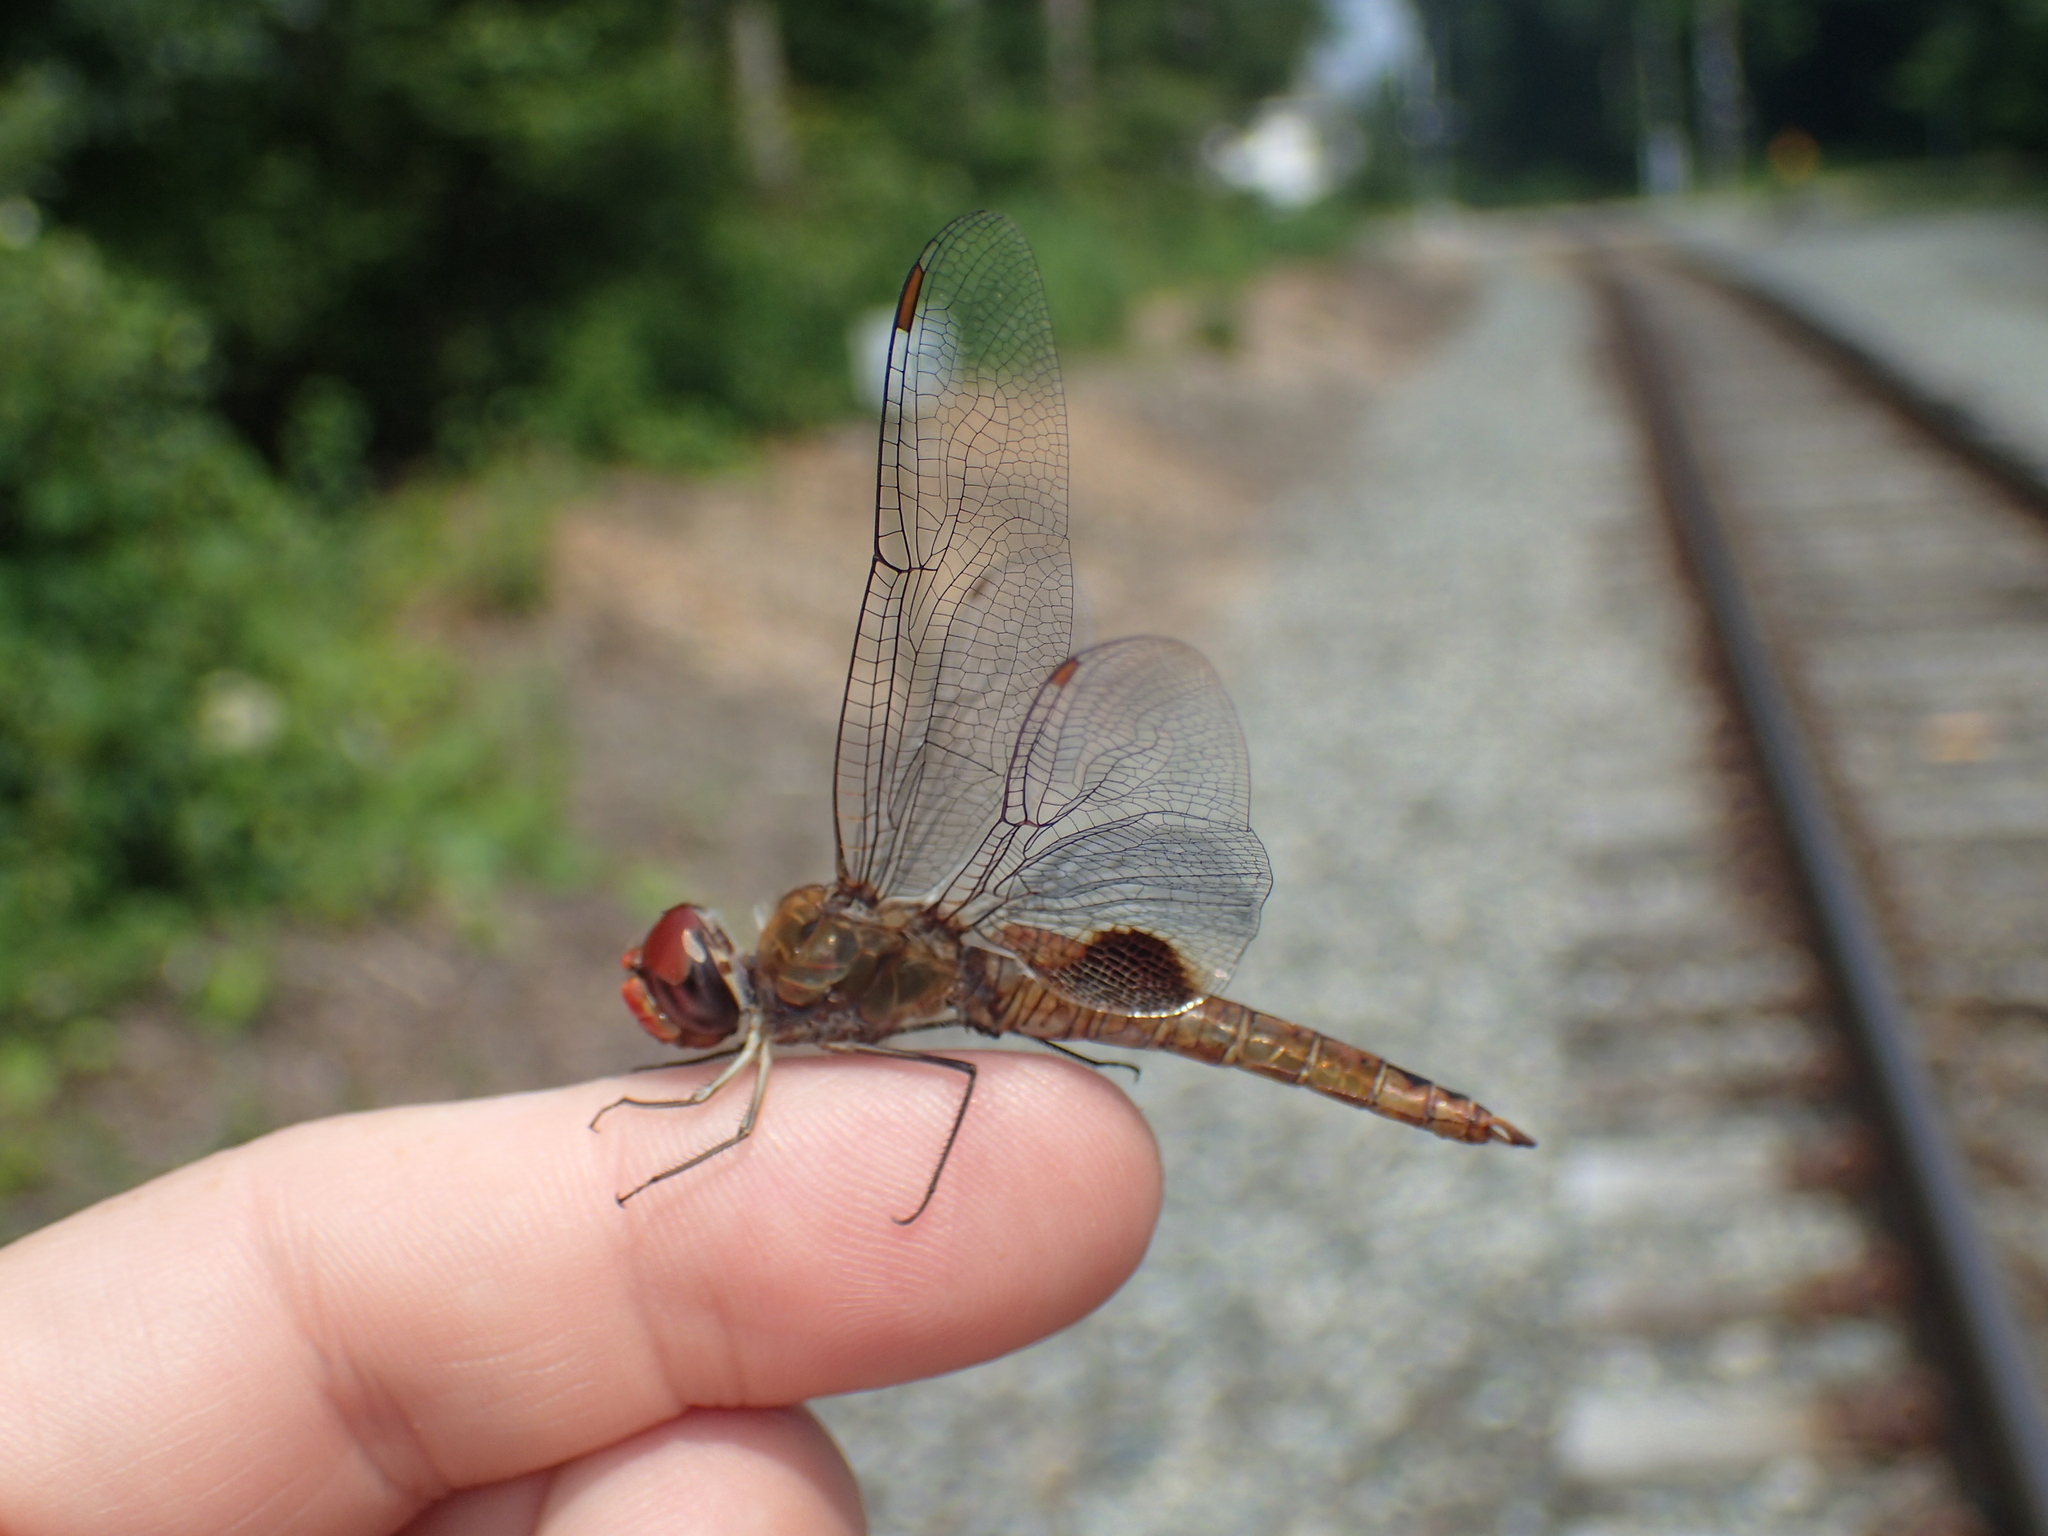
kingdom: Animalia
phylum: Arthropoda
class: Insecta
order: Odonata
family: Libellulidae
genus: Pantala
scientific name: Pantala hymenaea
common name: Spot-winged glider
